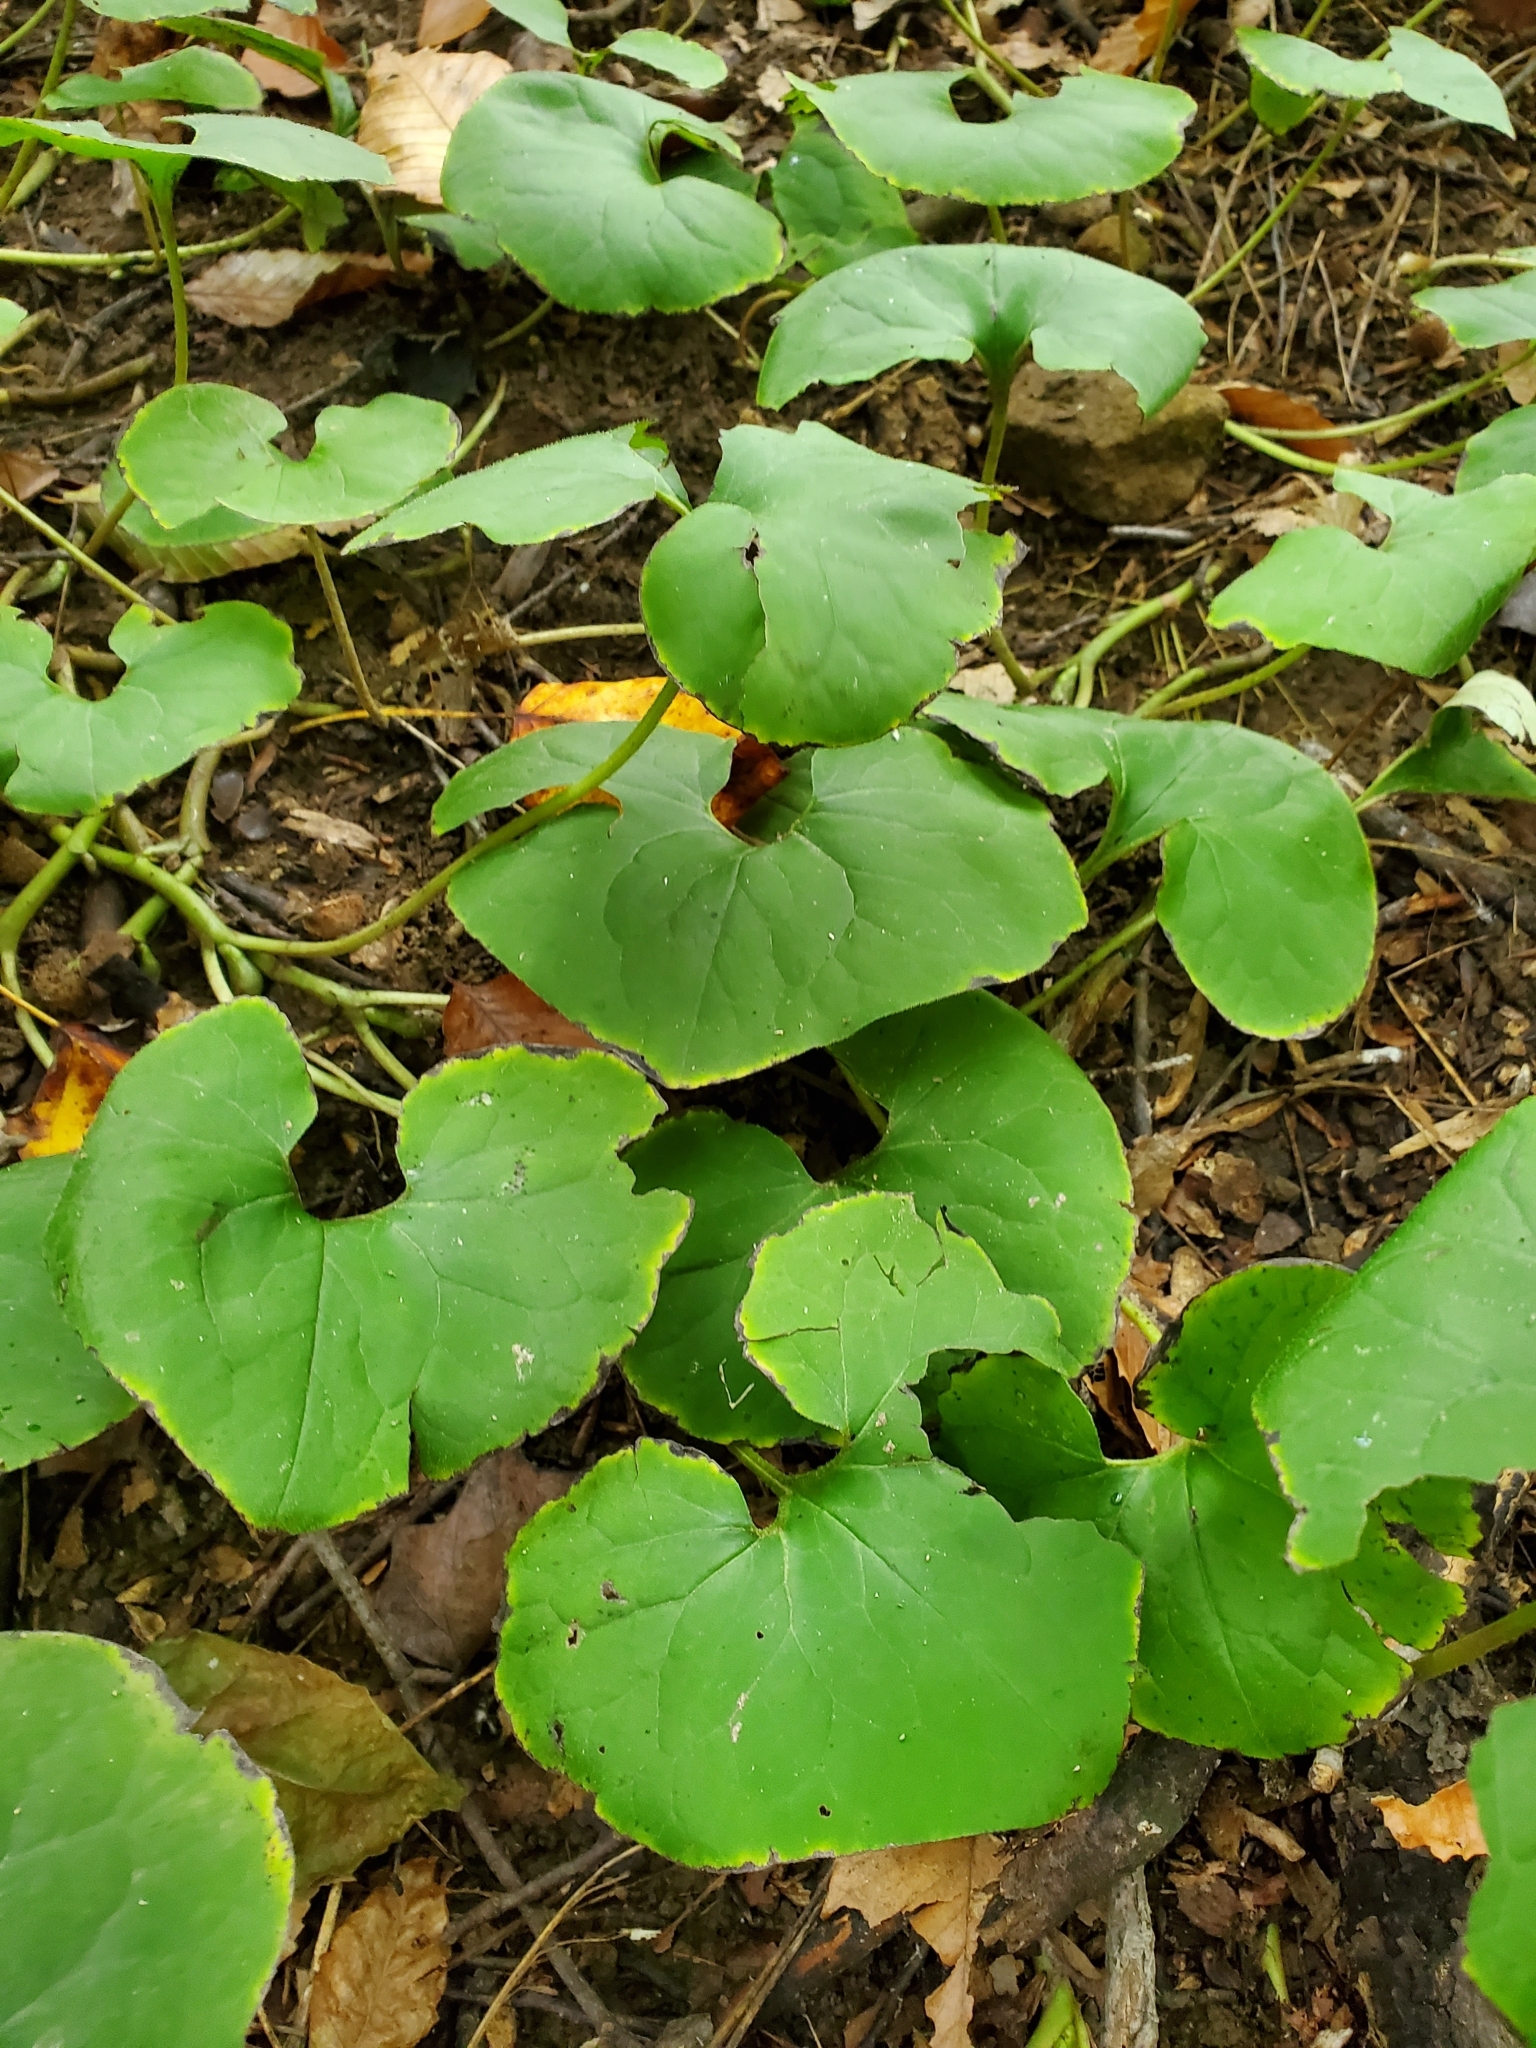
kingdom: Plantae
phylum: Tracheophyta
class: Magnoliopsida
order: Piperales
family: Aristolochiaceae
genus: Asarum
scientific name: Asarum canadense
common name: Wild ginger
